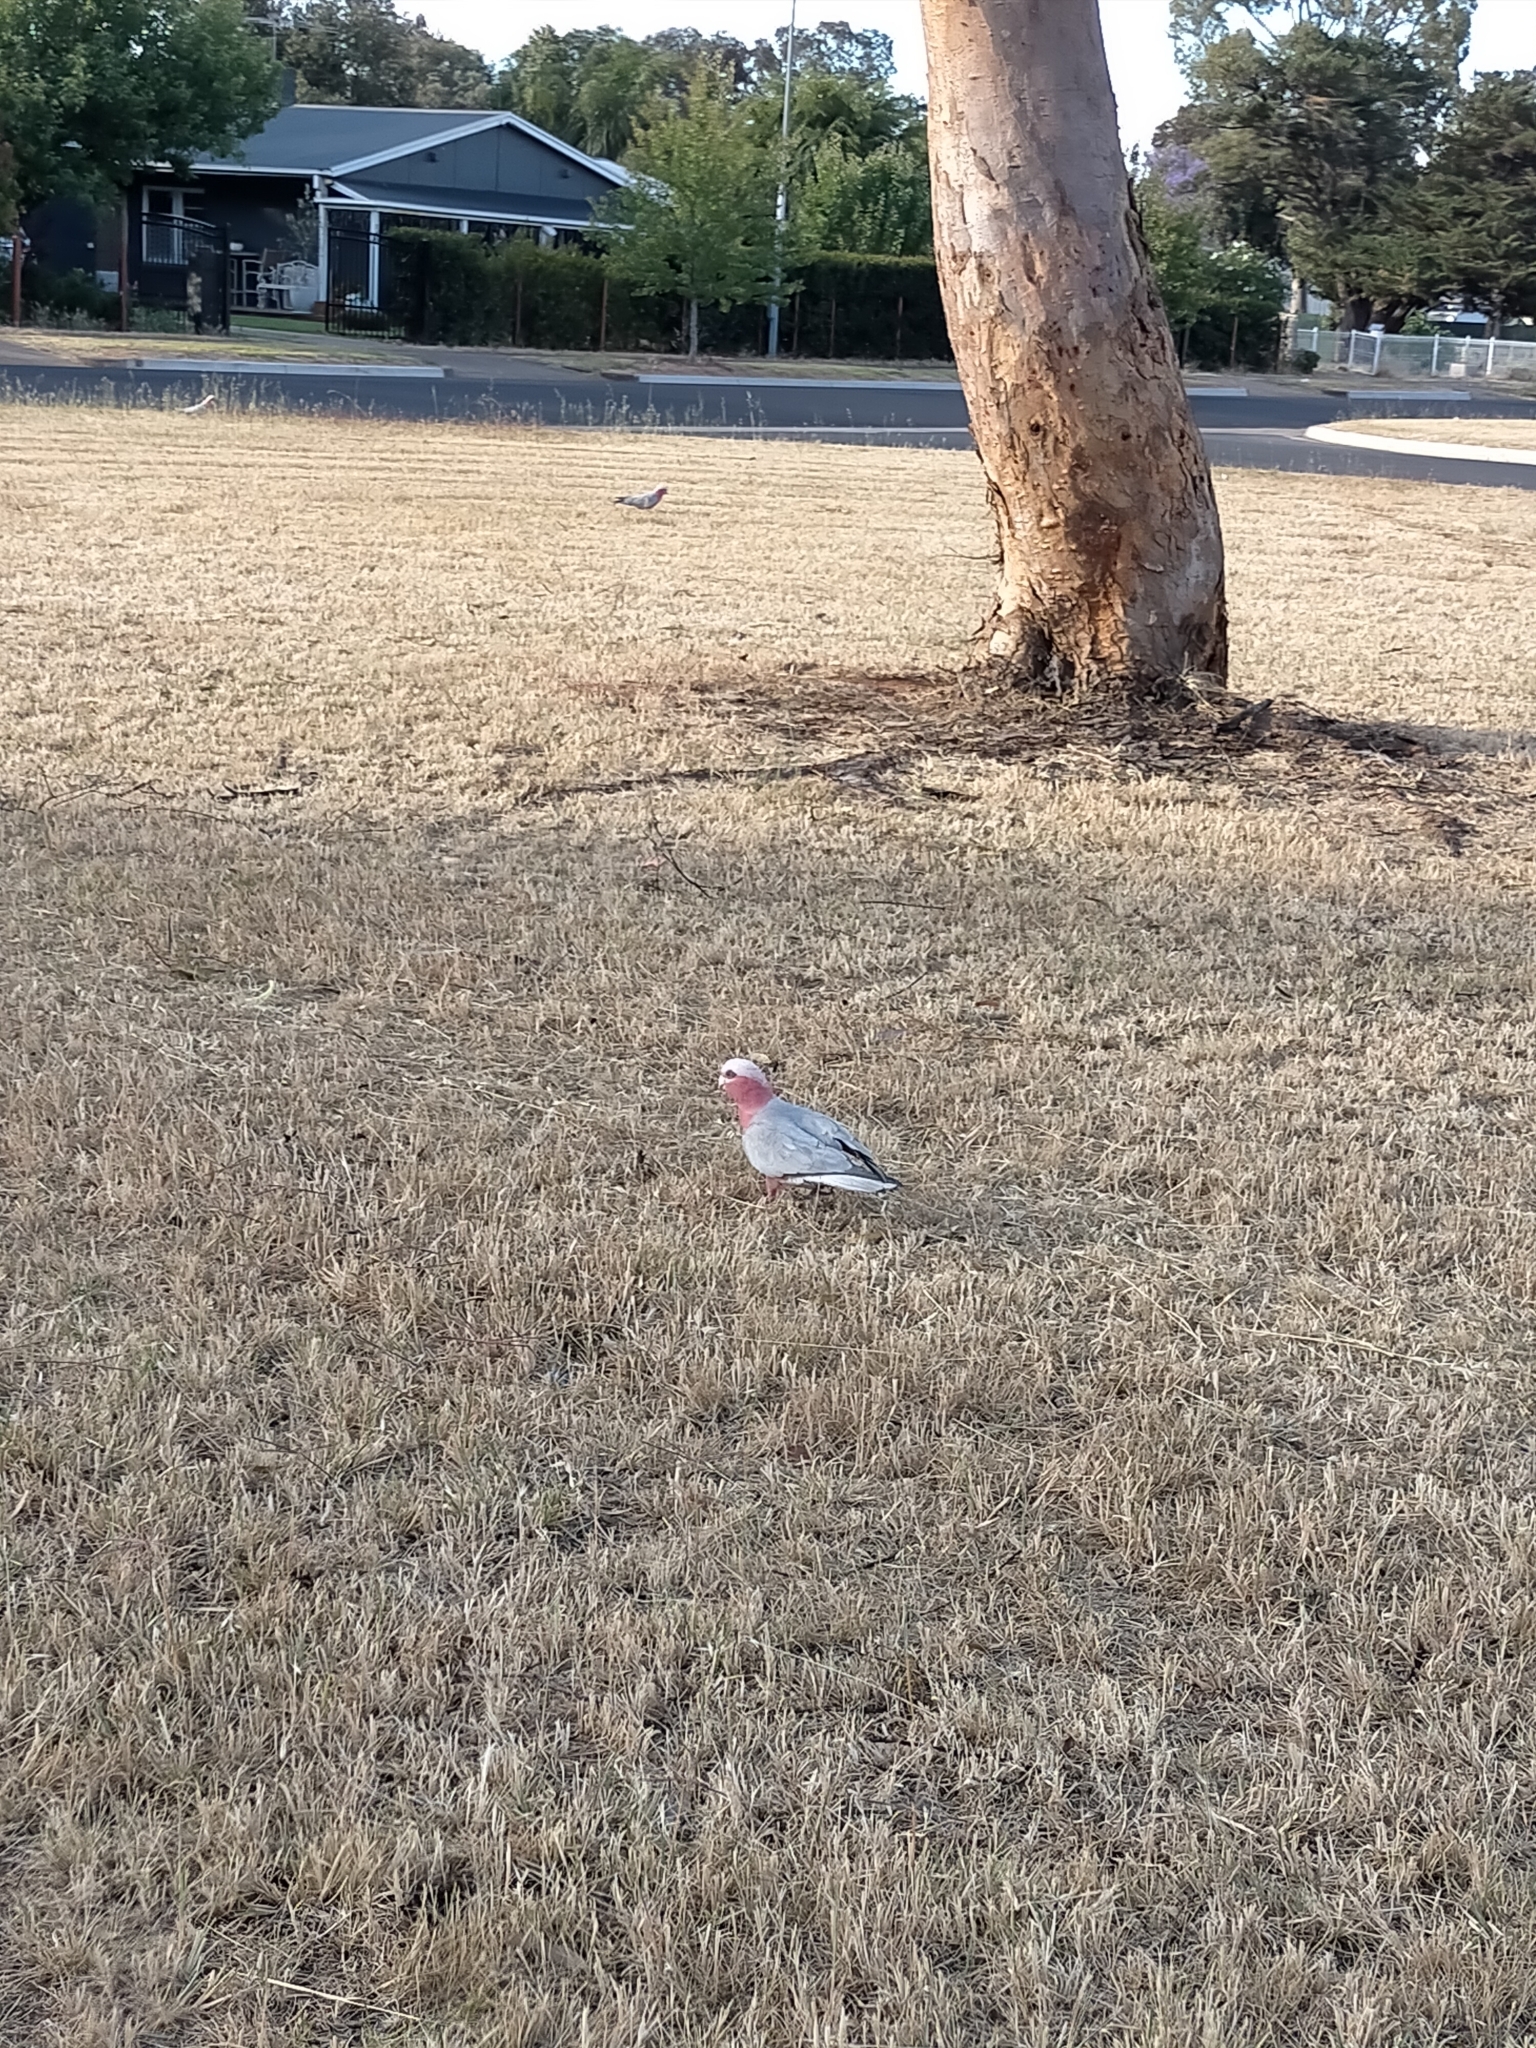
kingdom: Animalia
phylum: Chordata
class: Aves
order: Psittaciformes
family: Psittacidae
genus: Eolophus
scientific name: Eolophus roseicapilla
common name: Galah
